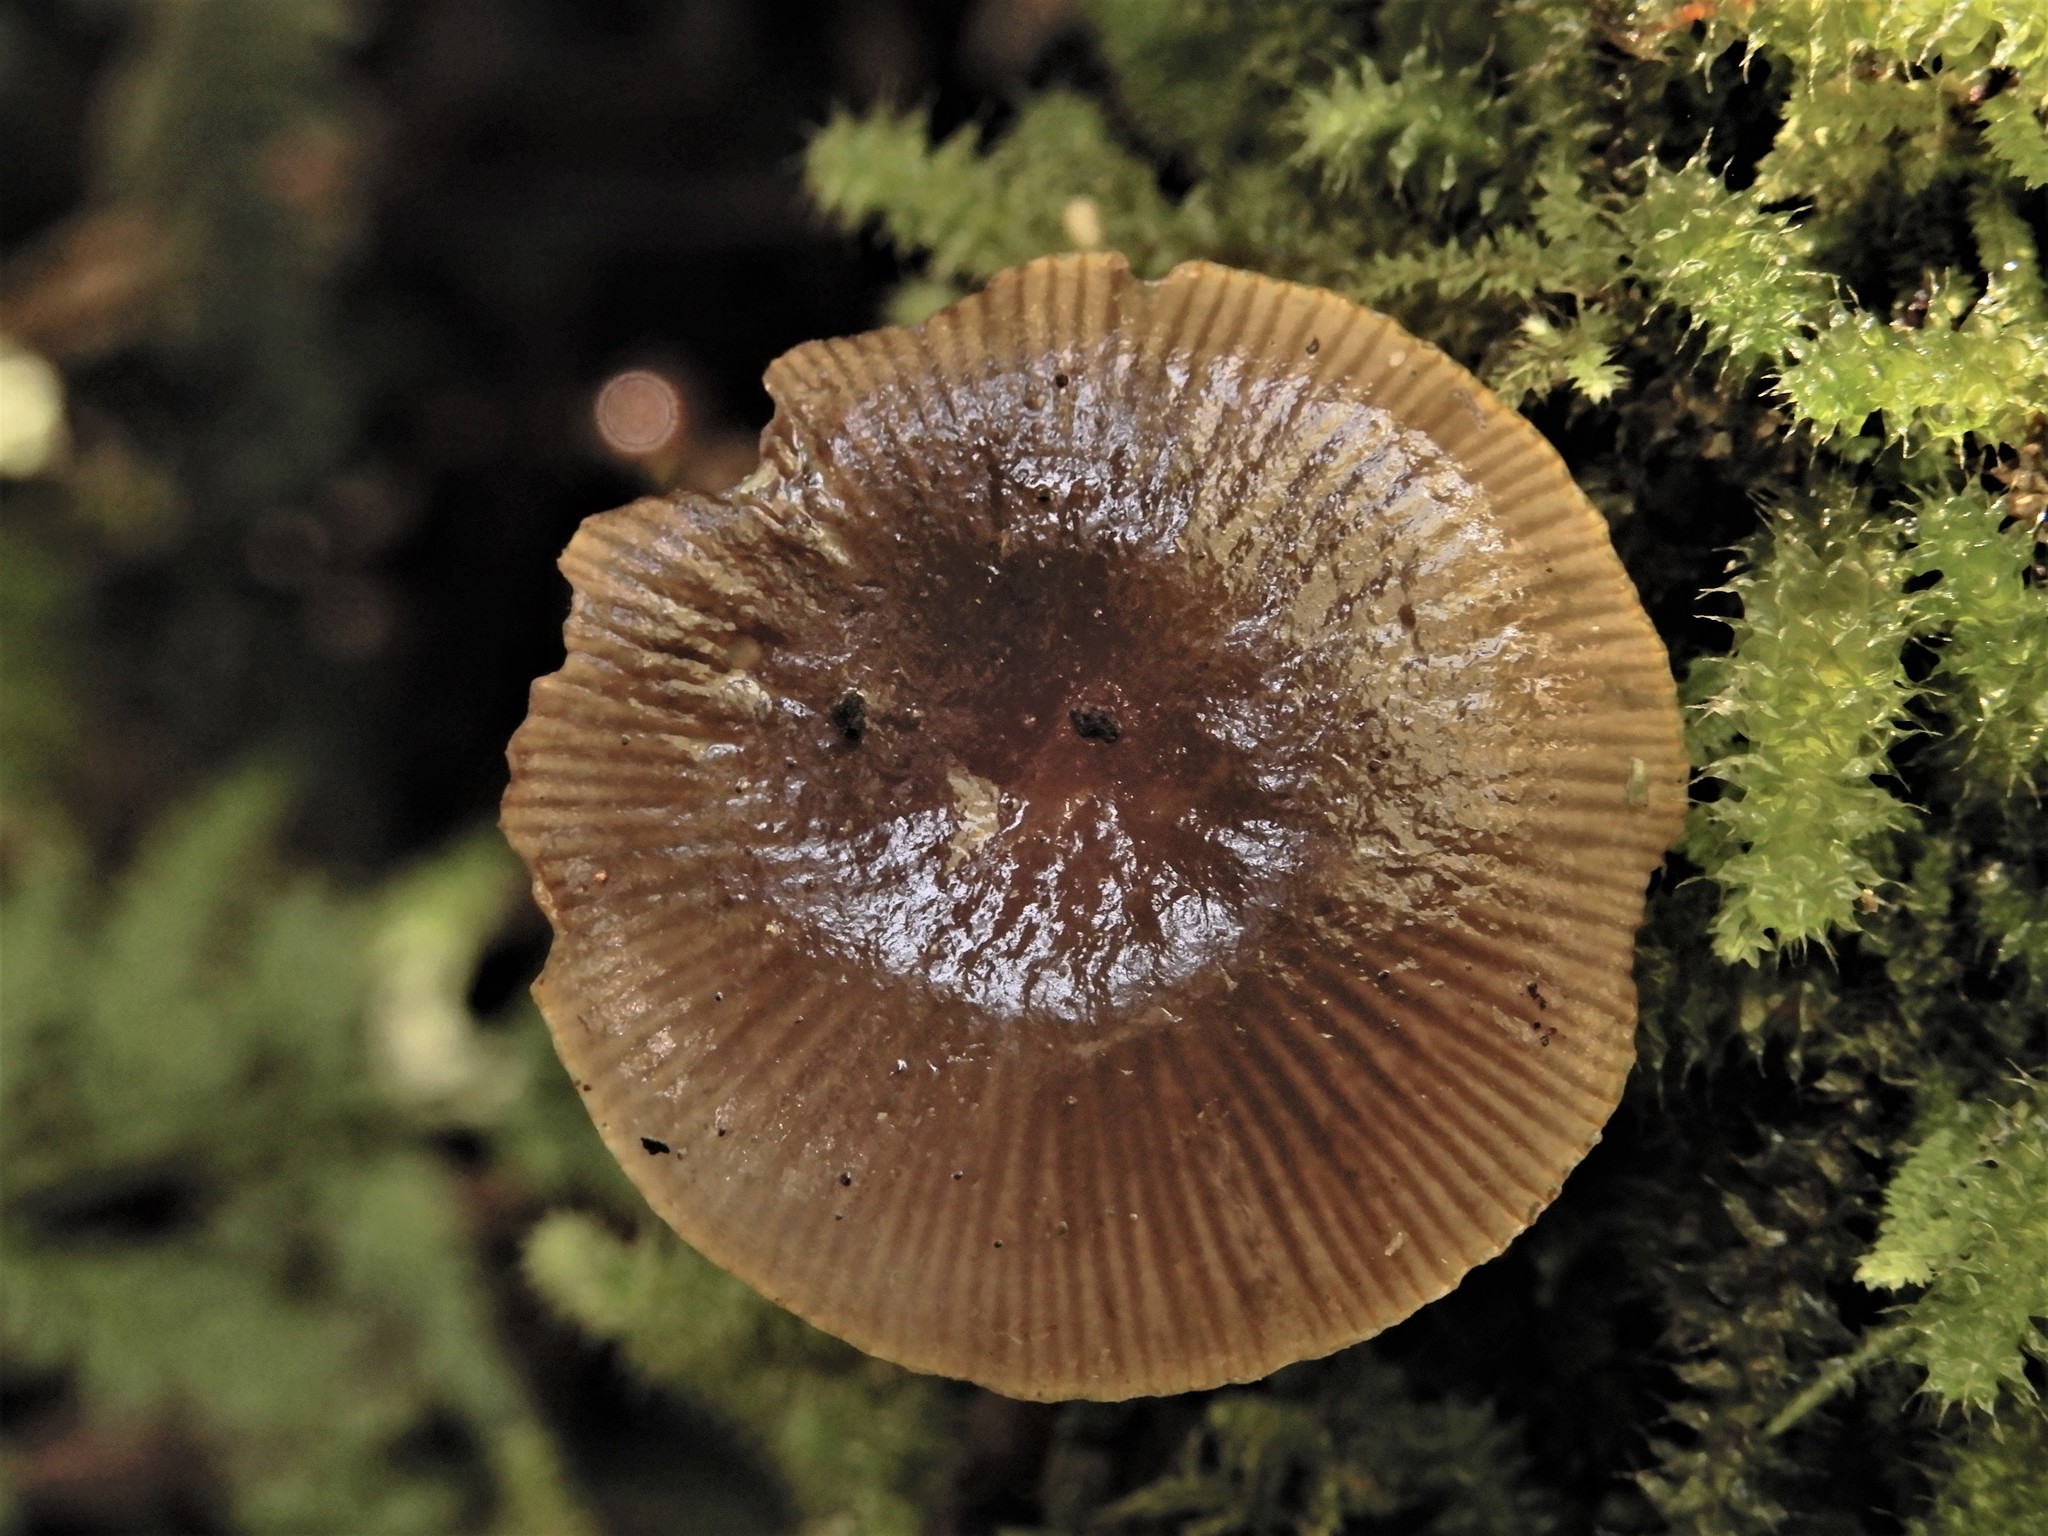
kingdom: Fungi
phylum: Basidiomycota
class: Agaricomycetes
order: Agaricales
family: Mycenaceae
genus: Mycena
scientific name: Mycena leaiana
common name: Orange mycena
